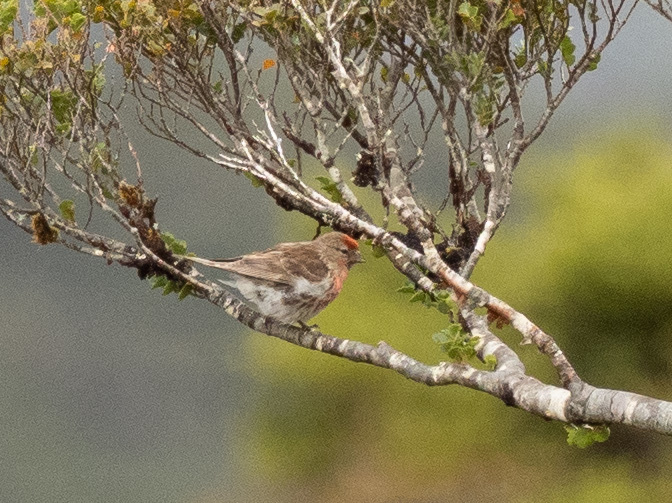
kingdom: Animalia
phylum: Chordata
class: Aves
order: Passeriformes
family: Fringillidae
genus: Acanthis
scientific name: Acanthis flammea
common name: Common redpoll
